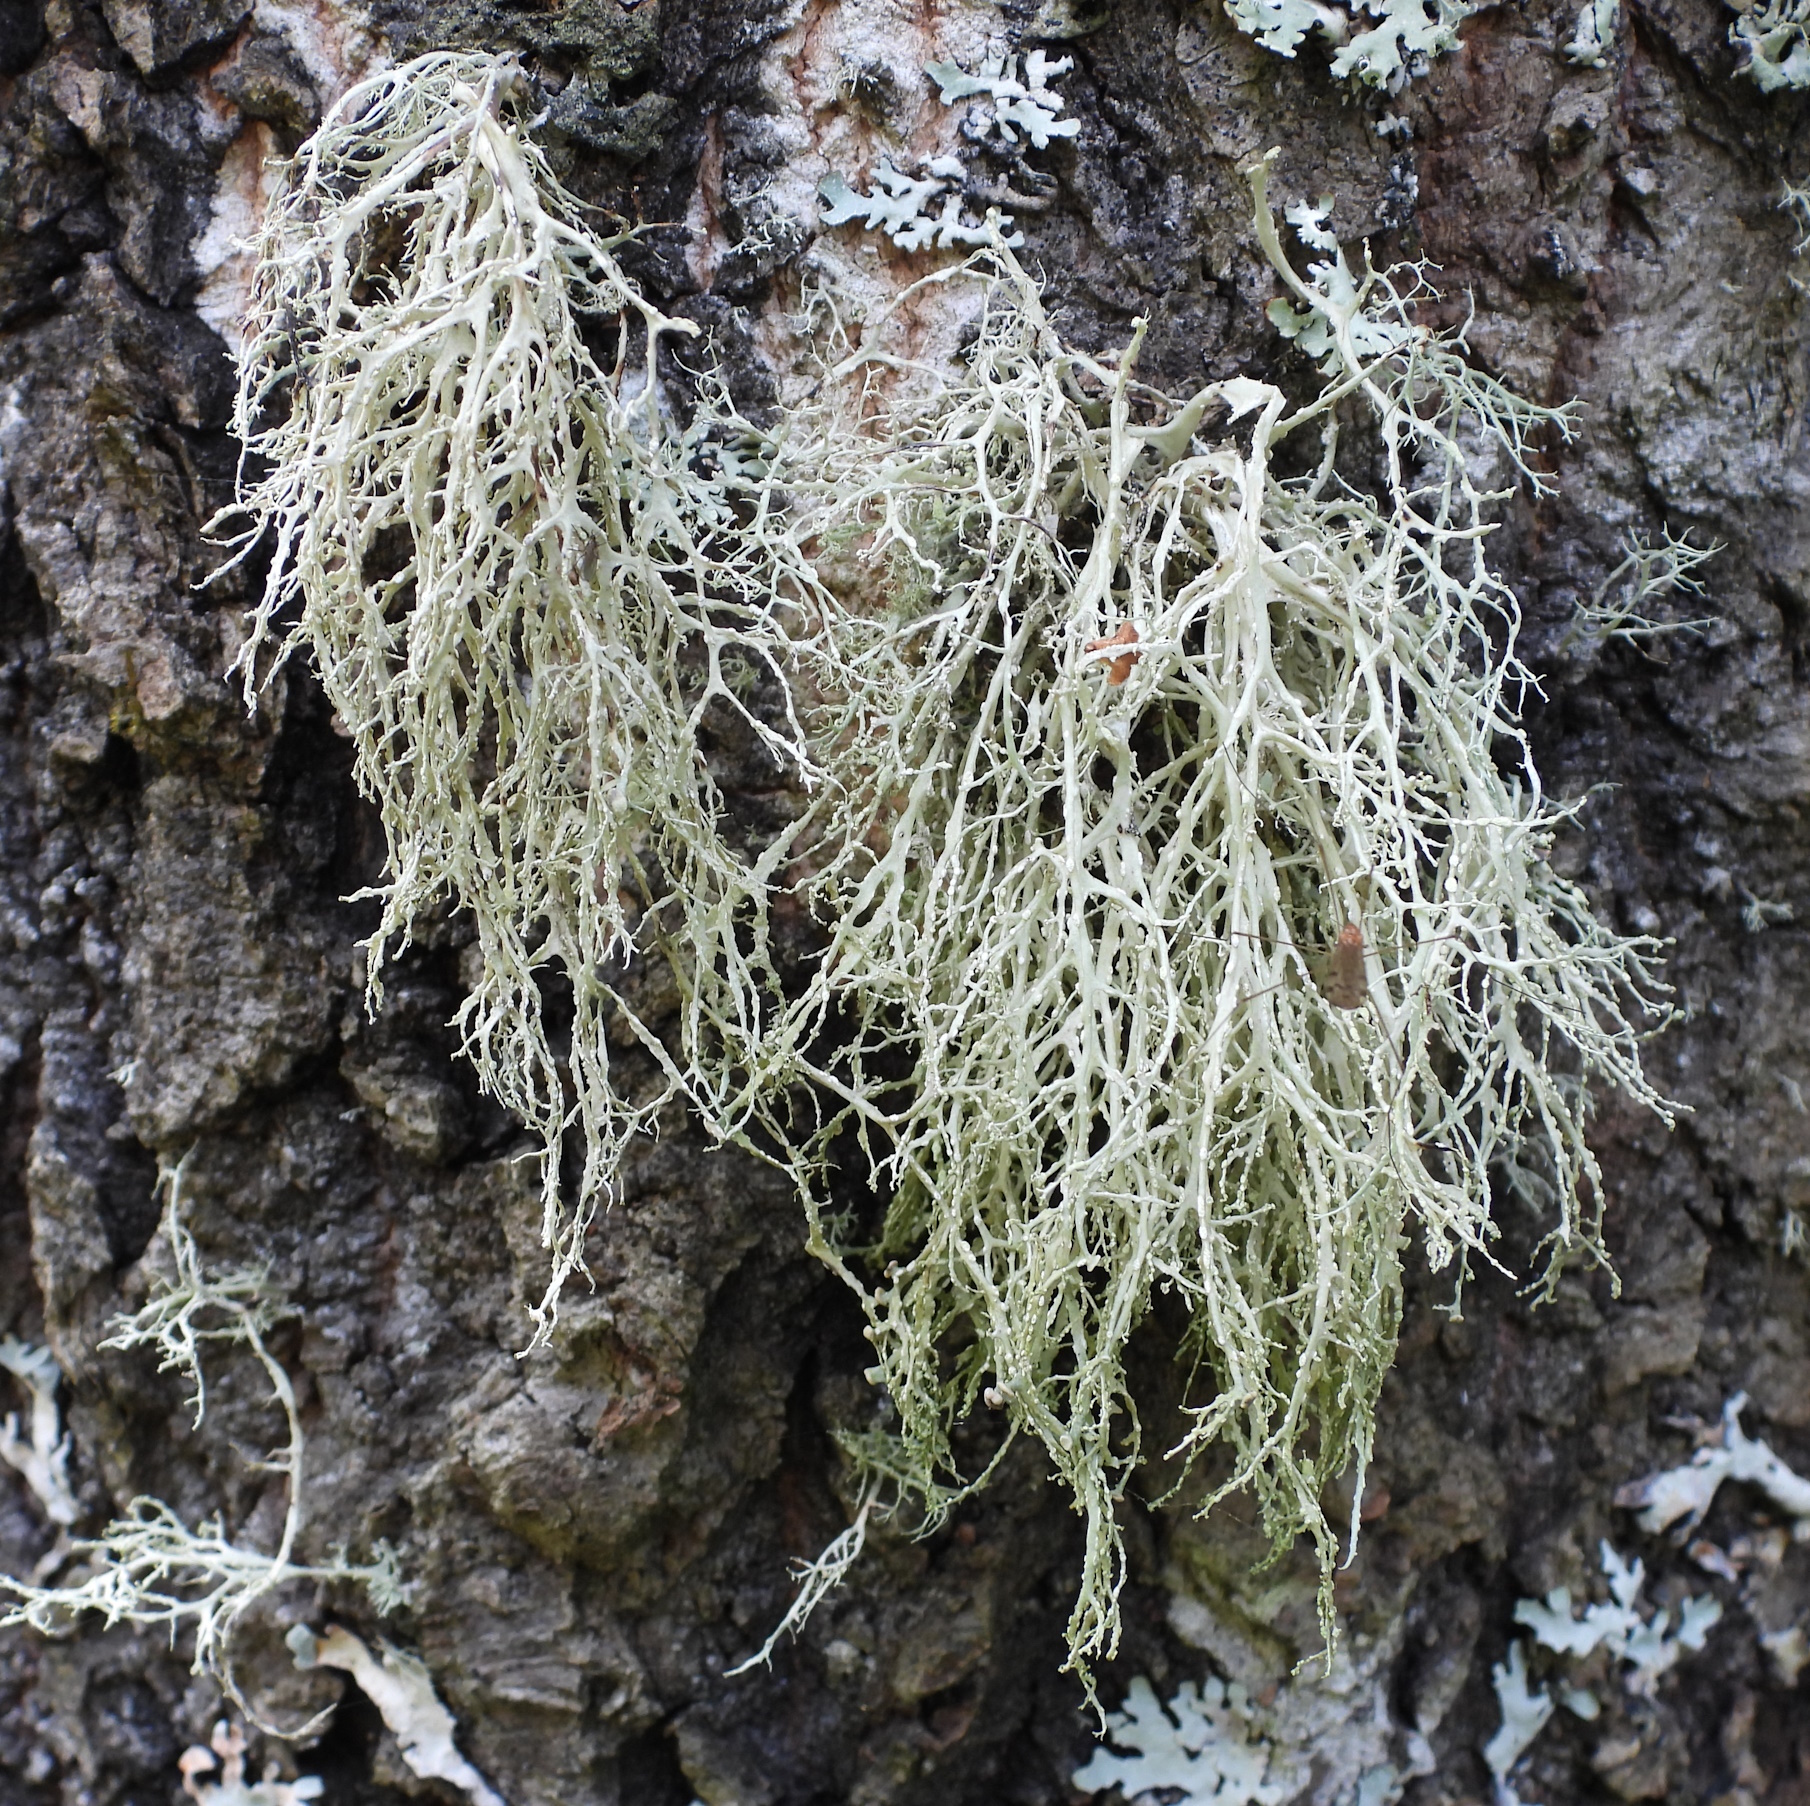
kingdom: Fungi
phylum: Ascomycota
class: Lecanoromycetes
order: Lecanorales
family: Ramalinaceae
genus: Ramalina
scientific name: Ramalina farinacea
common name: Farinose cartilage lichen
